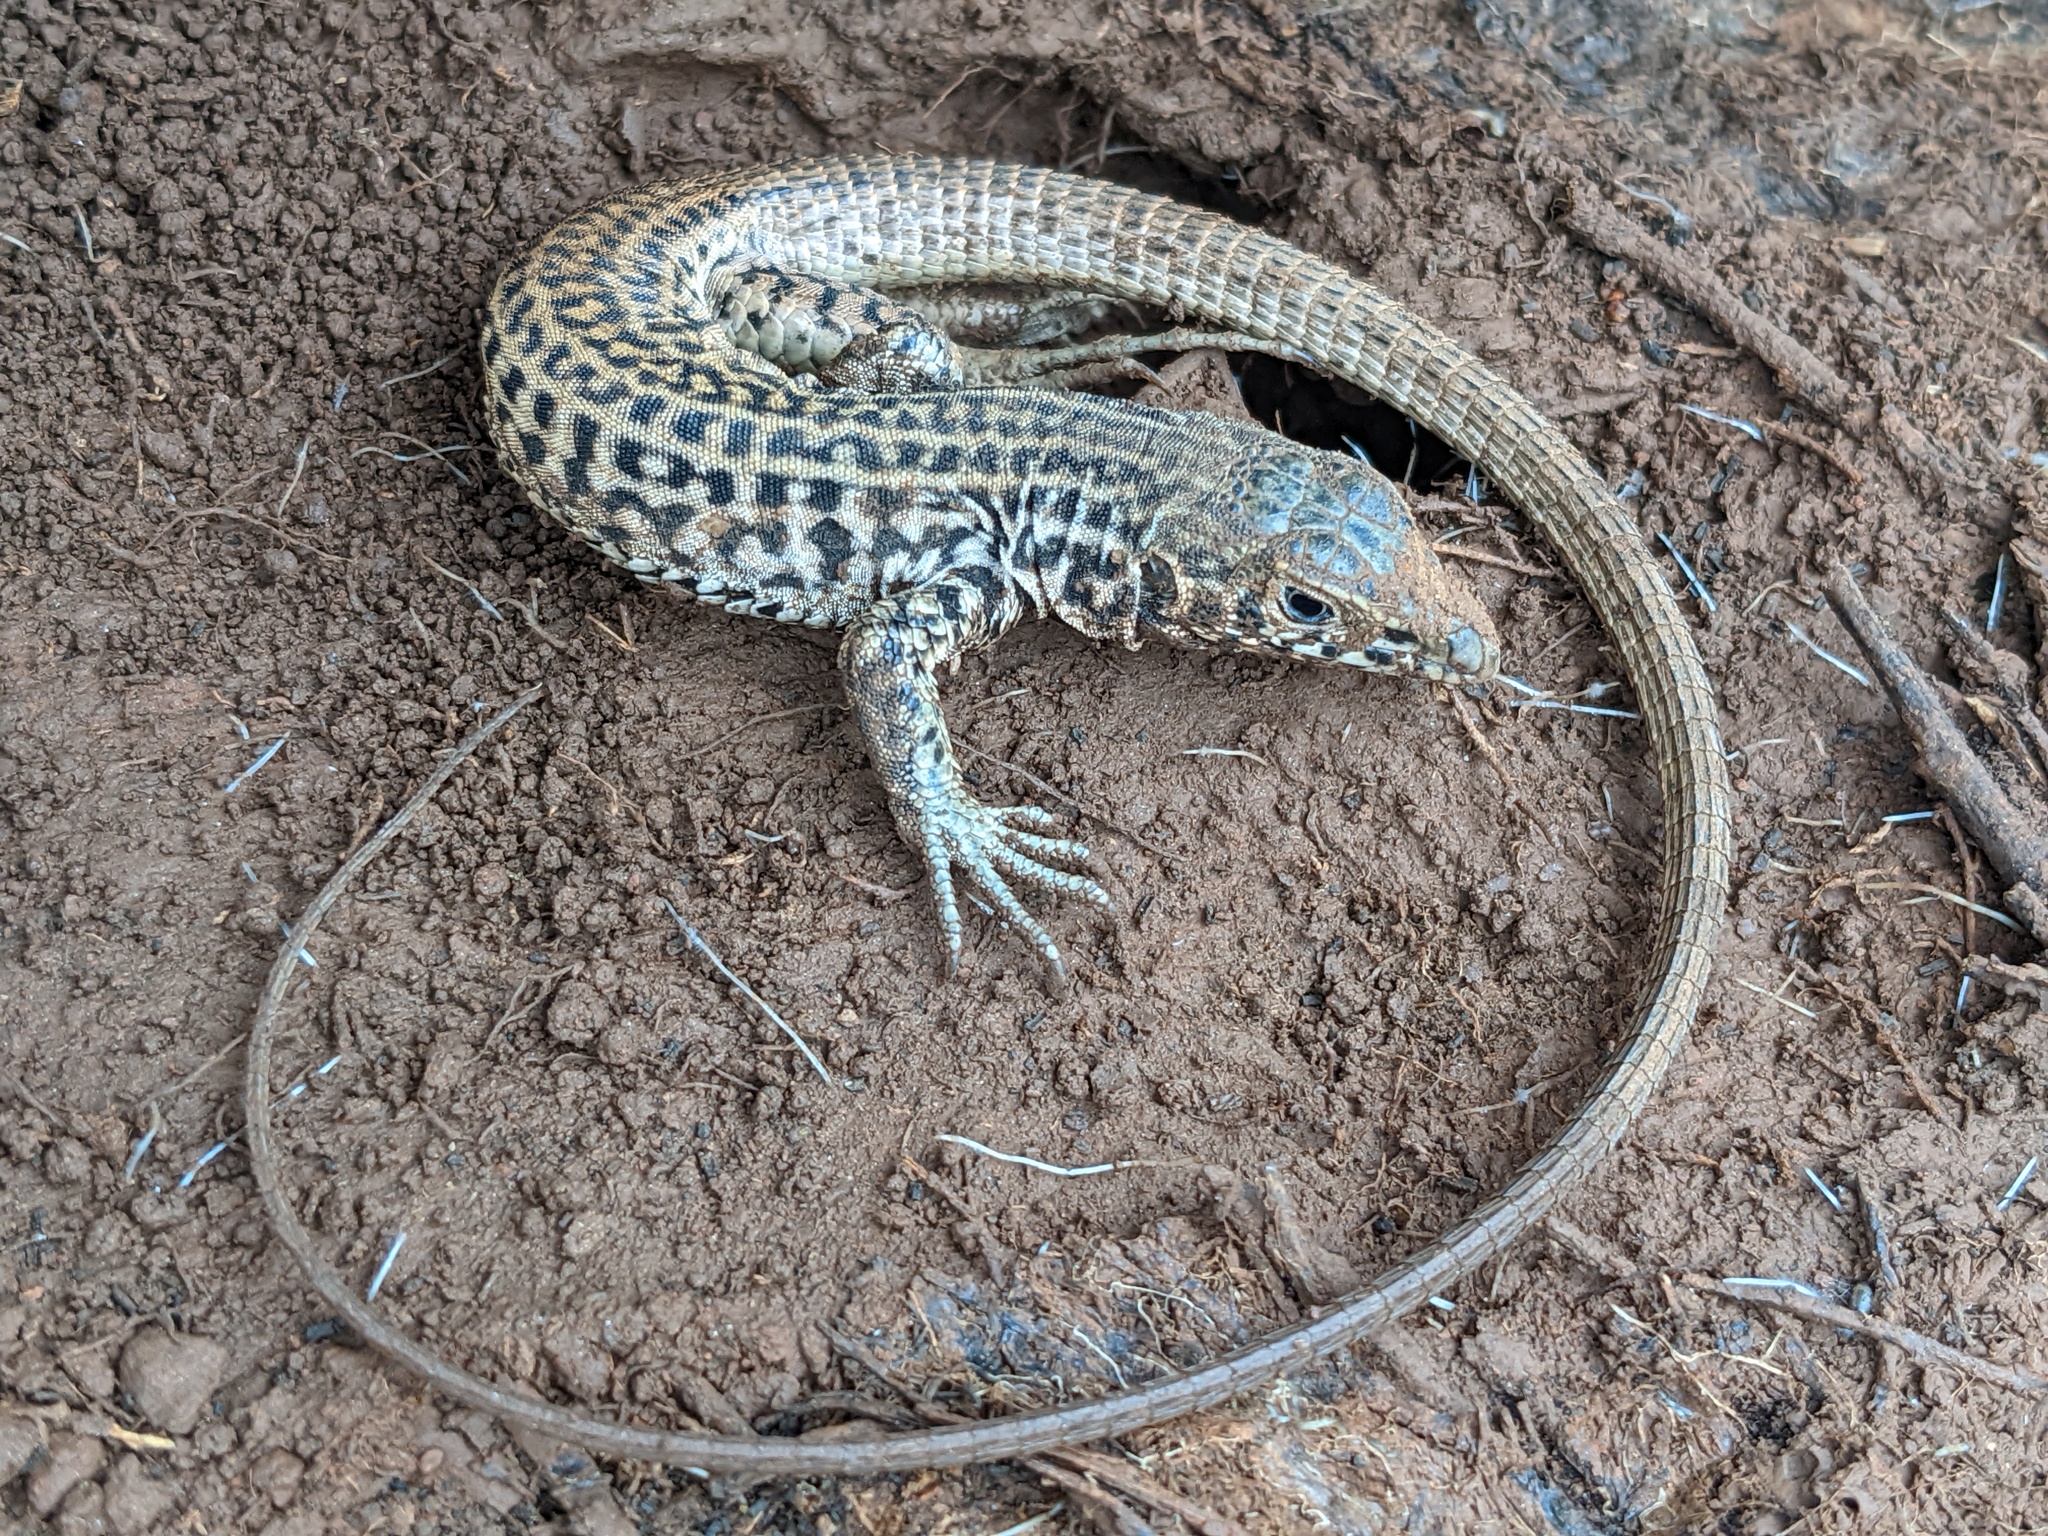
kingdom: Animalia
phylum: Chordata
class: Squamata
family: Teiidae
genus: Aspidoscelis
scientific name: Aspidoscelis tigris
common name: Tiger whiptail
